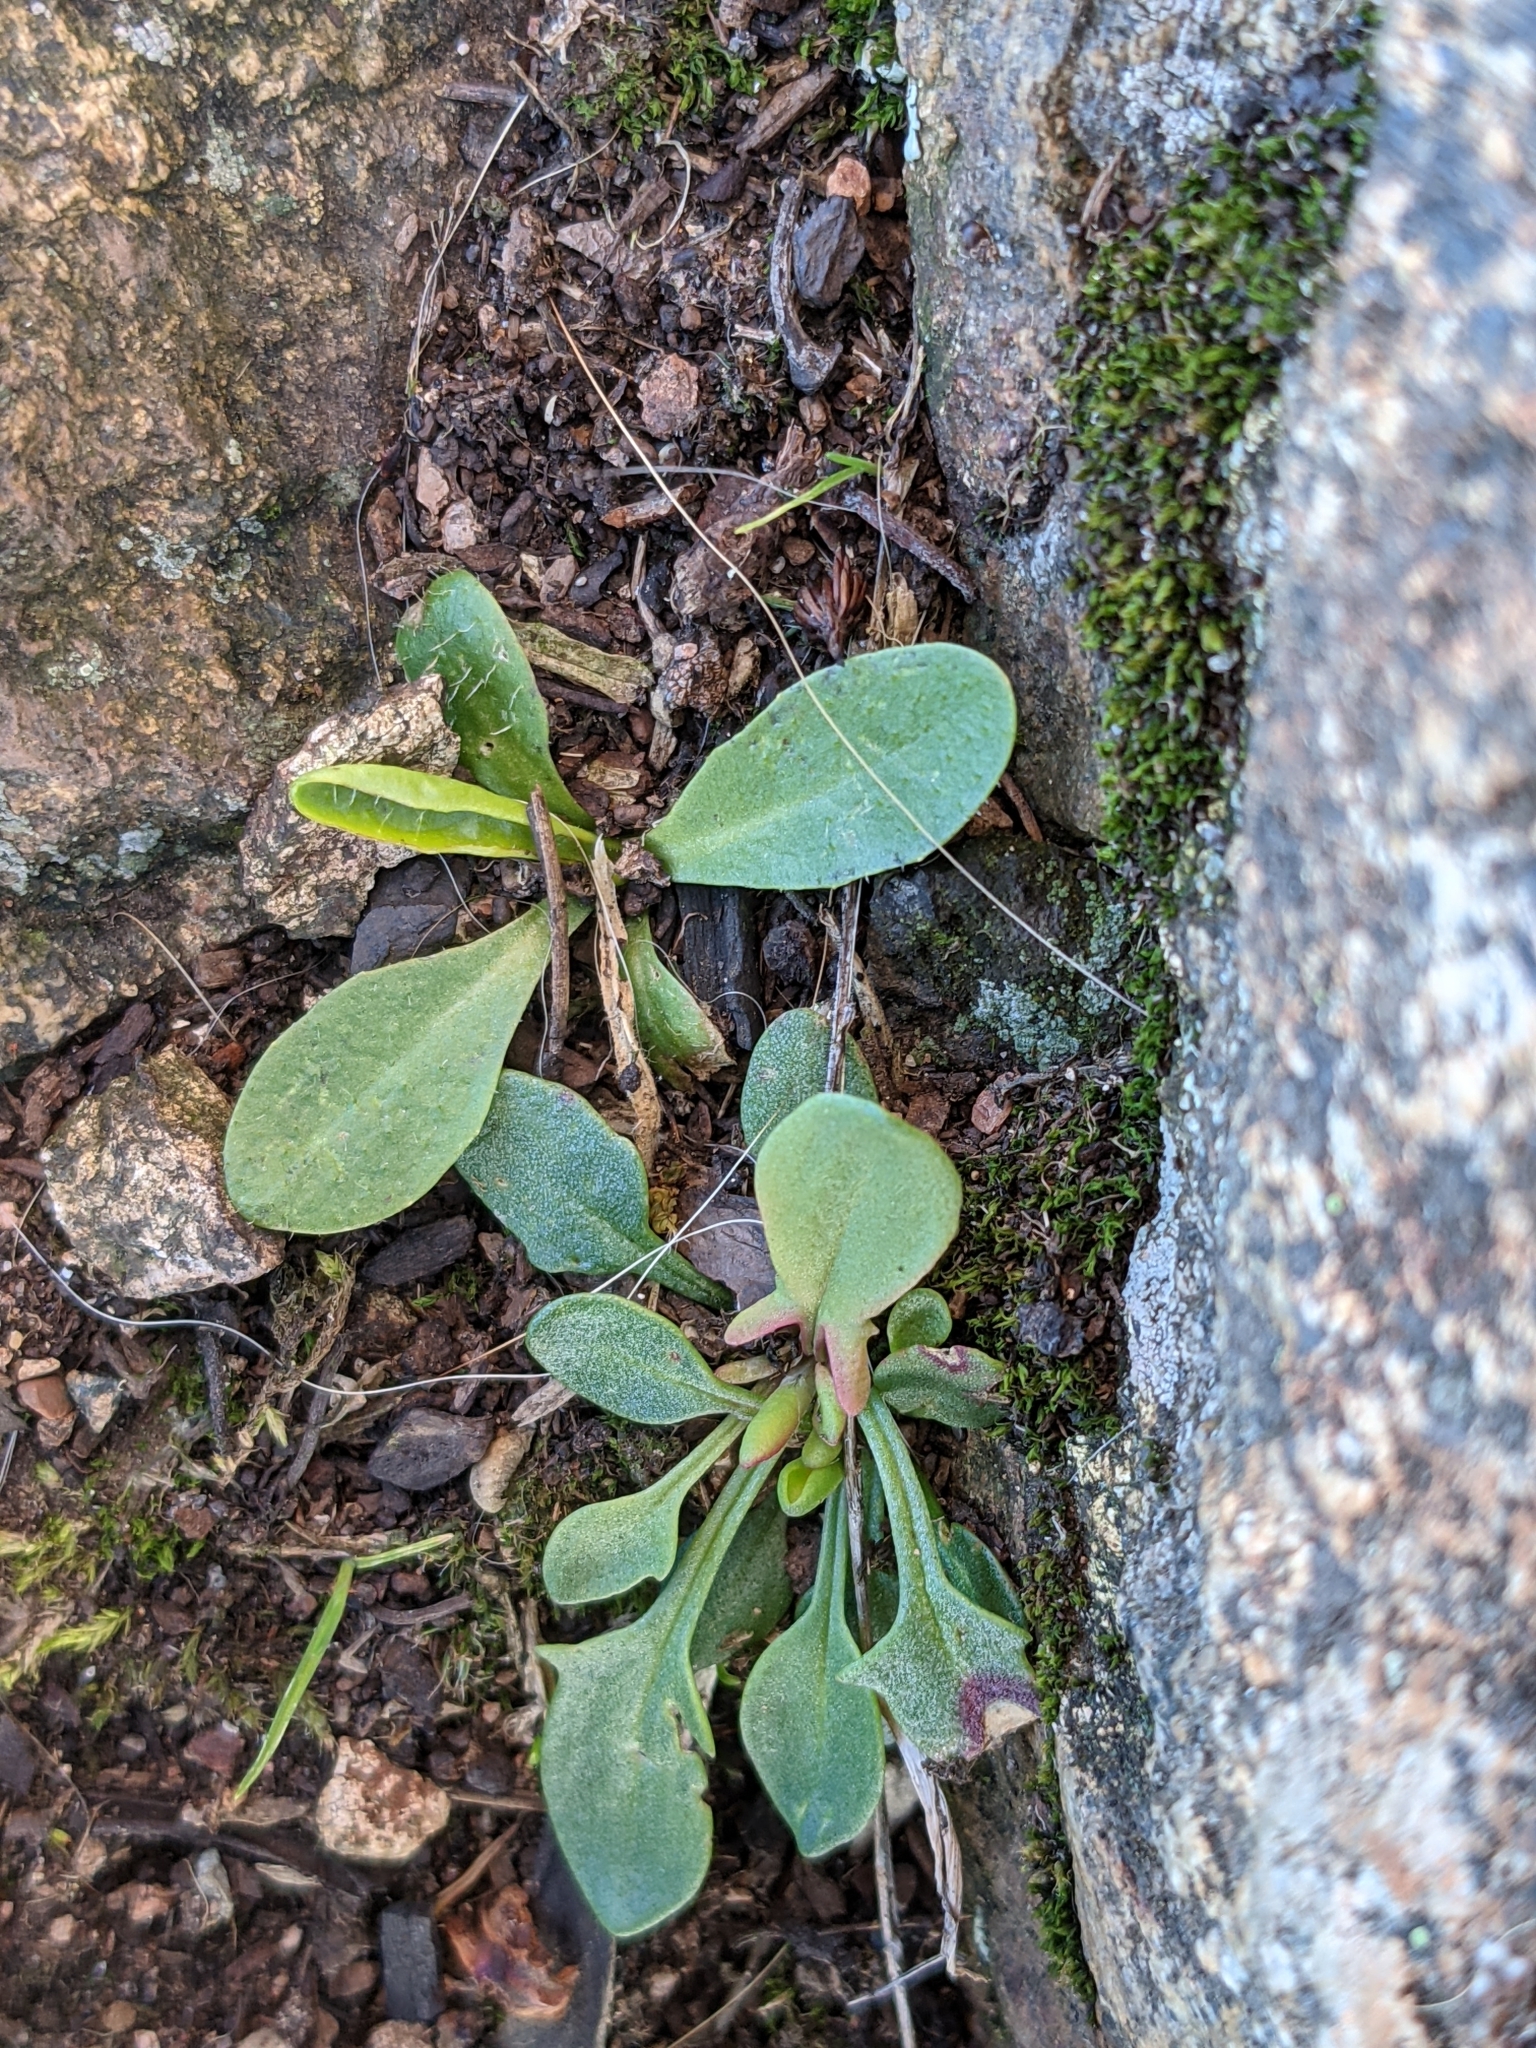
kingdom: Plantae
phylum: Tracheophyta
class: Magnoliopsida
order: Caryophyllales
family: Polygonaceae
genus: Rumex
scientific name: Rumex acetosella
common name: Common sheep sorrel
